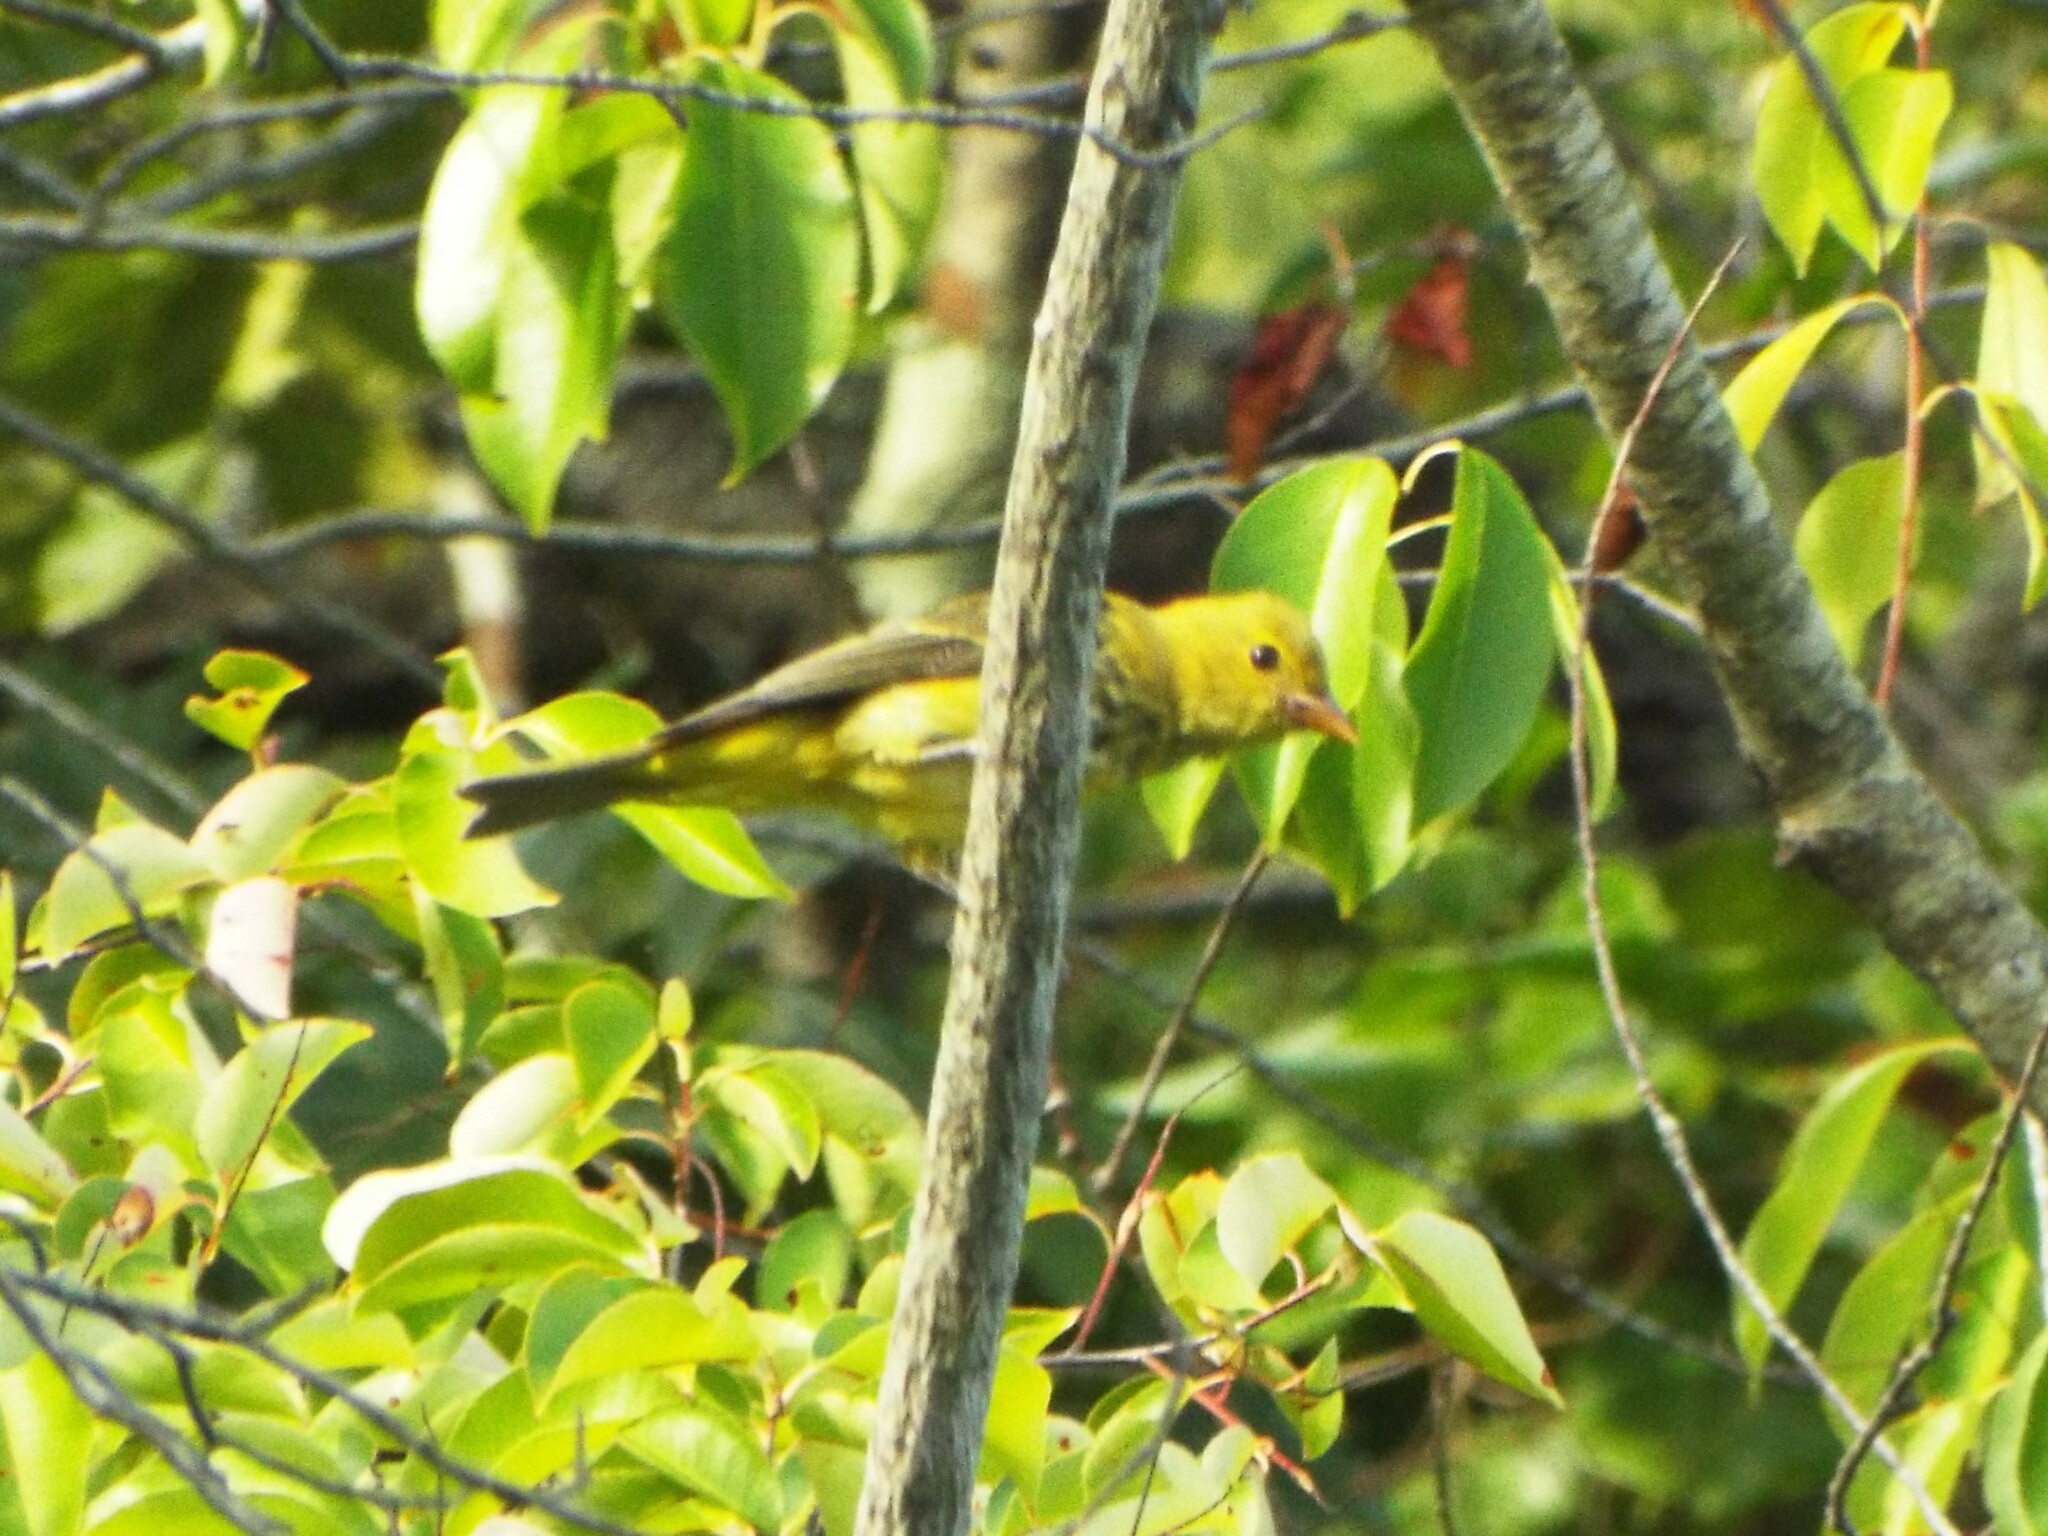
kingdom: Animalia
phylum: Chordata
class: Aves
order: Passeriformes
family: Cardinalidae
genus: Piranga
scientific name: Piranga olivacea
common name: Scarlet tanager
